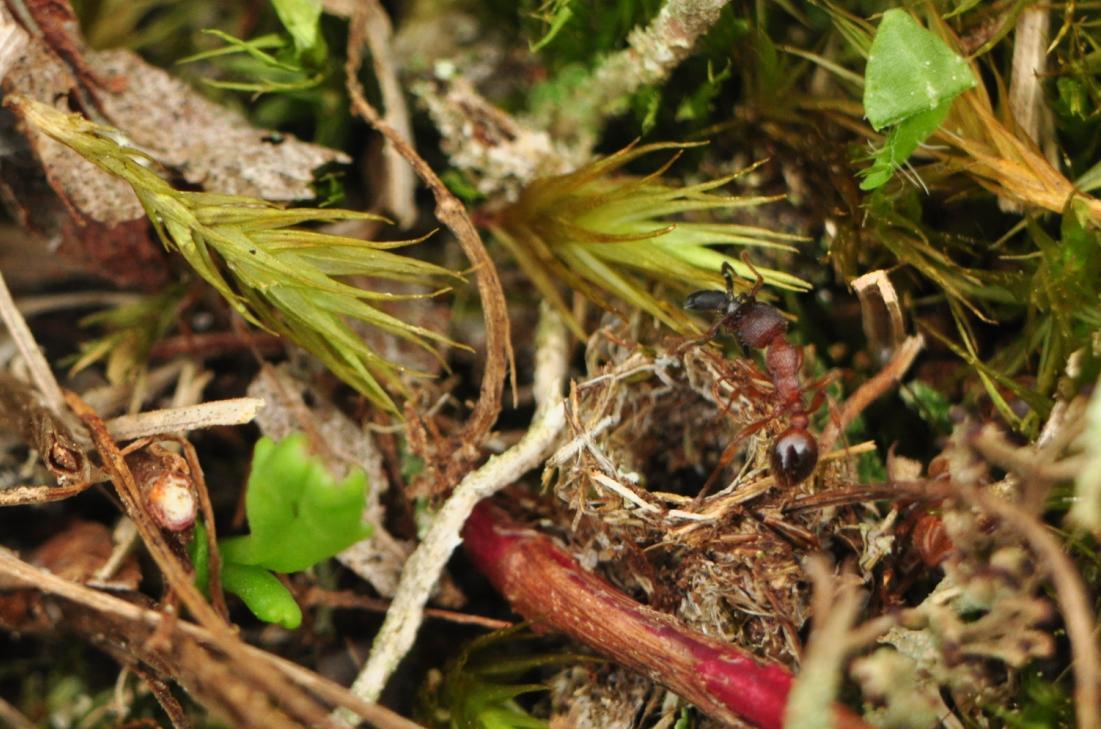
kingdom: Animalia
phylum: Arthropoda
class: Insecta
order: Hymenoptera
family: Formicidae
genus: Myrmica
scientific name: Myrmica schencki
